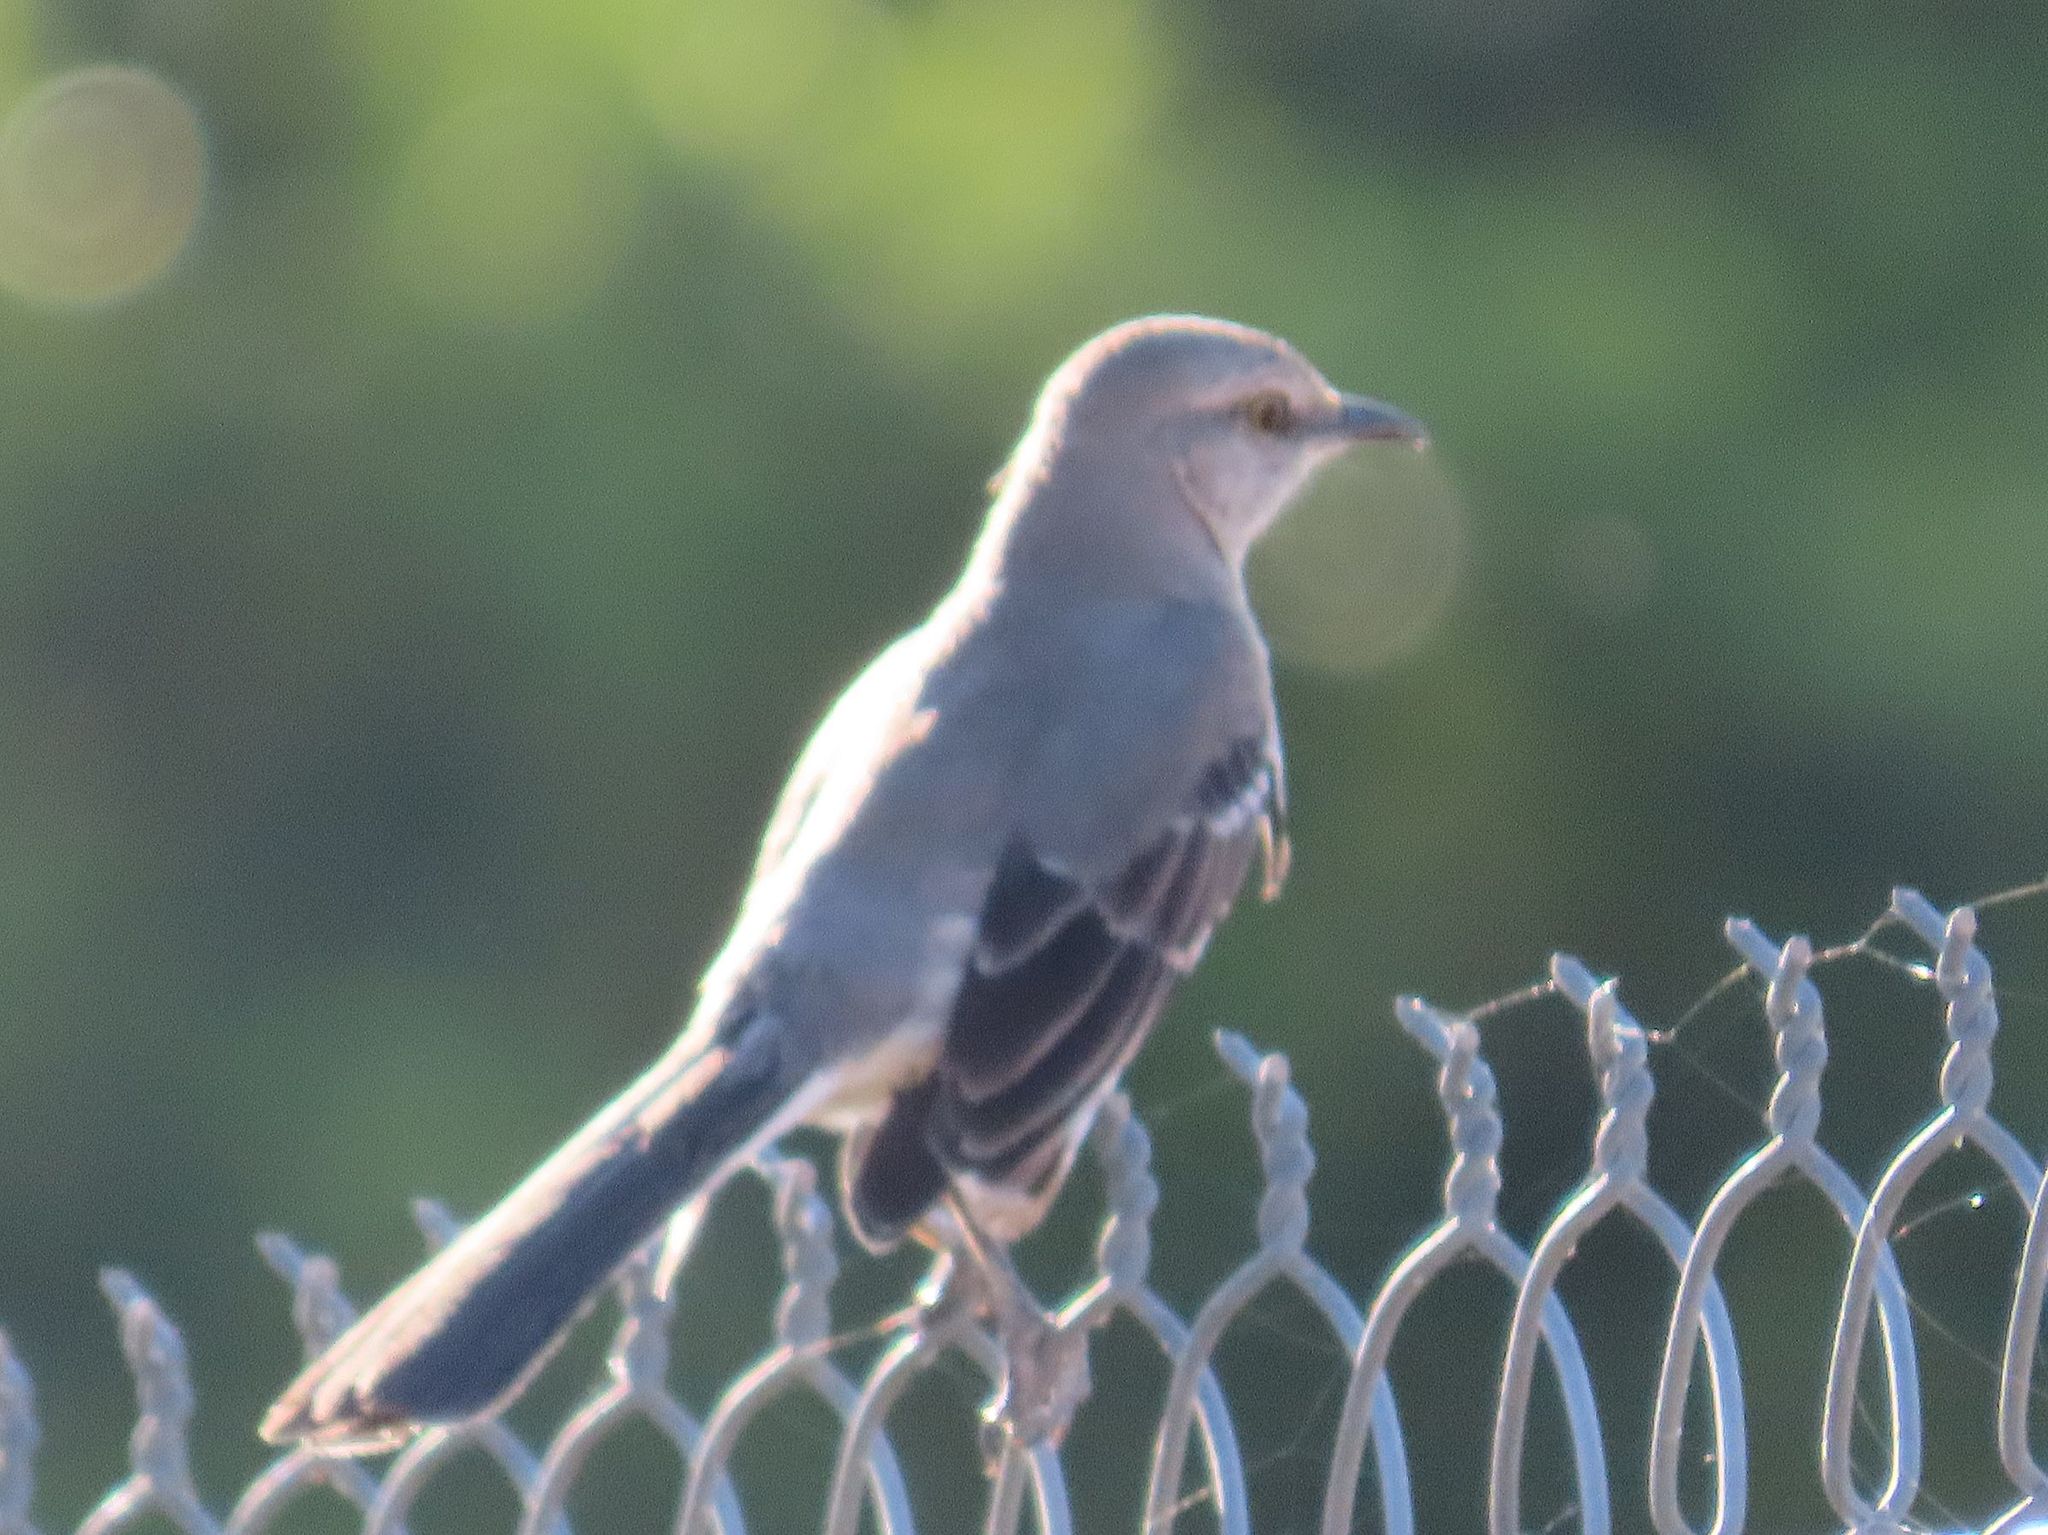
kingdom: Animalia
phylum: Chordata
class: Aves
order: Passeriformes
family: Mimidae
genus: Mimus
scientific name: Mimus polyglottos
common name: Northern mockingbird
